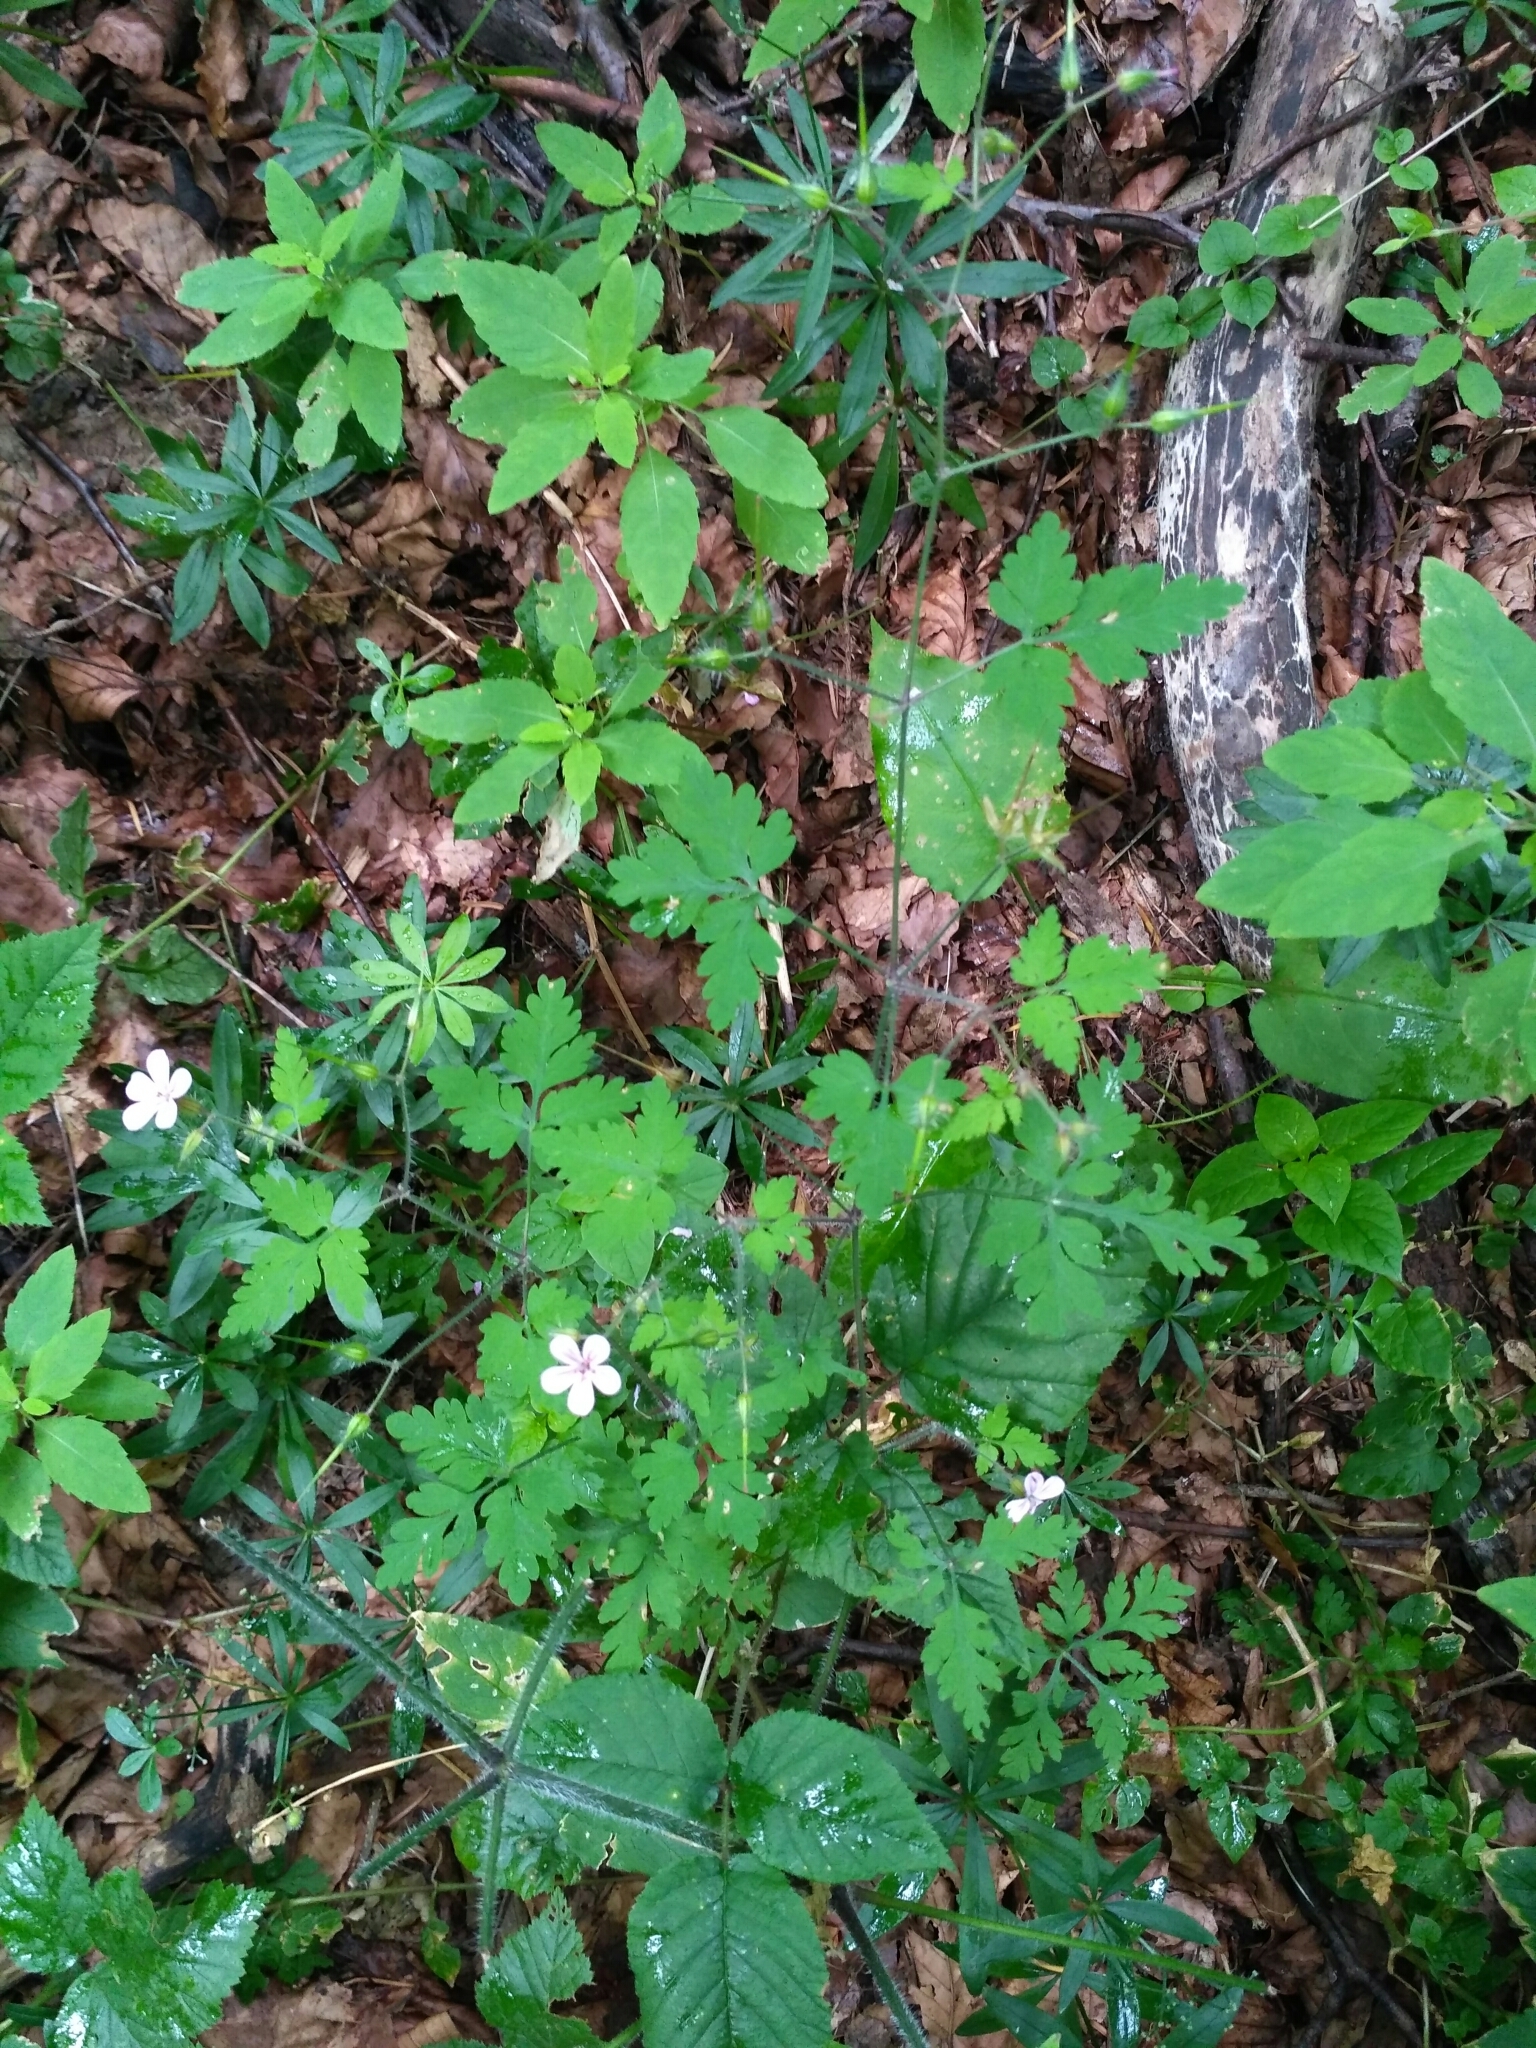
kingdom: Plantae
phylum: Tracheophyta
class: Magnoliopsida
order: Geraniales
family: Geraniaceae
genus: Geranium
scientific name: Geranium robertianum
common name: Herb-robert
